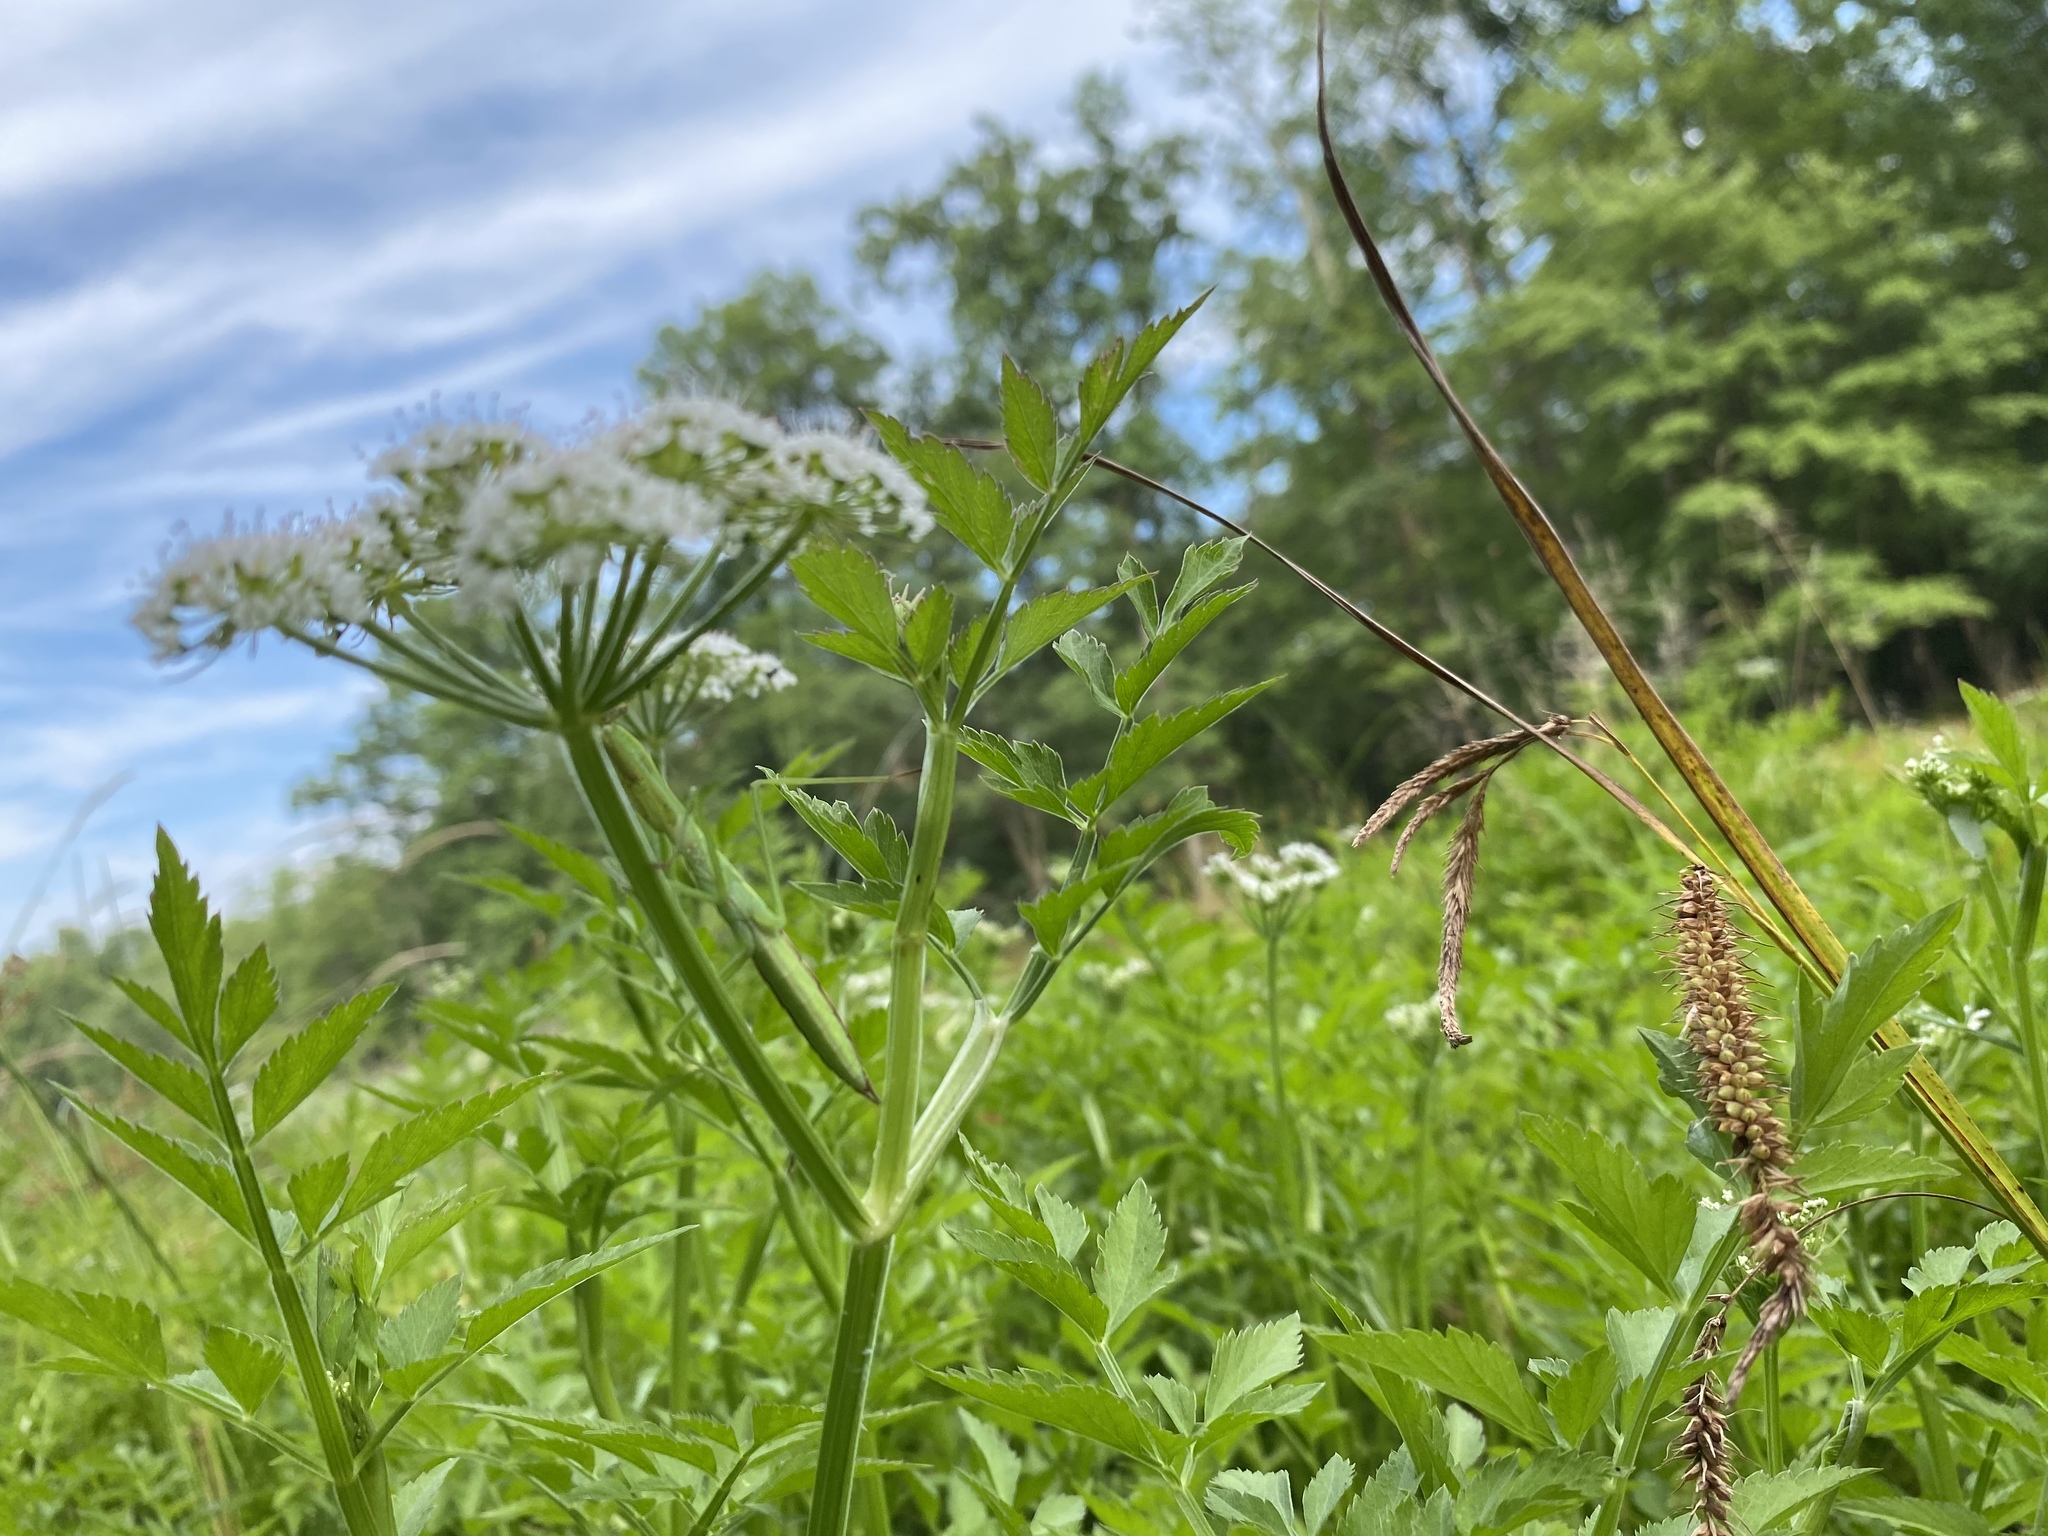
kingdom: Plantae
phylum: Tracheophyta
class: Magnoliopsida
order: Apiales
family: Apiaceae
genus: Oenanthe
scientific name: Oenanthe javanica
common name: Java water-dropwort
